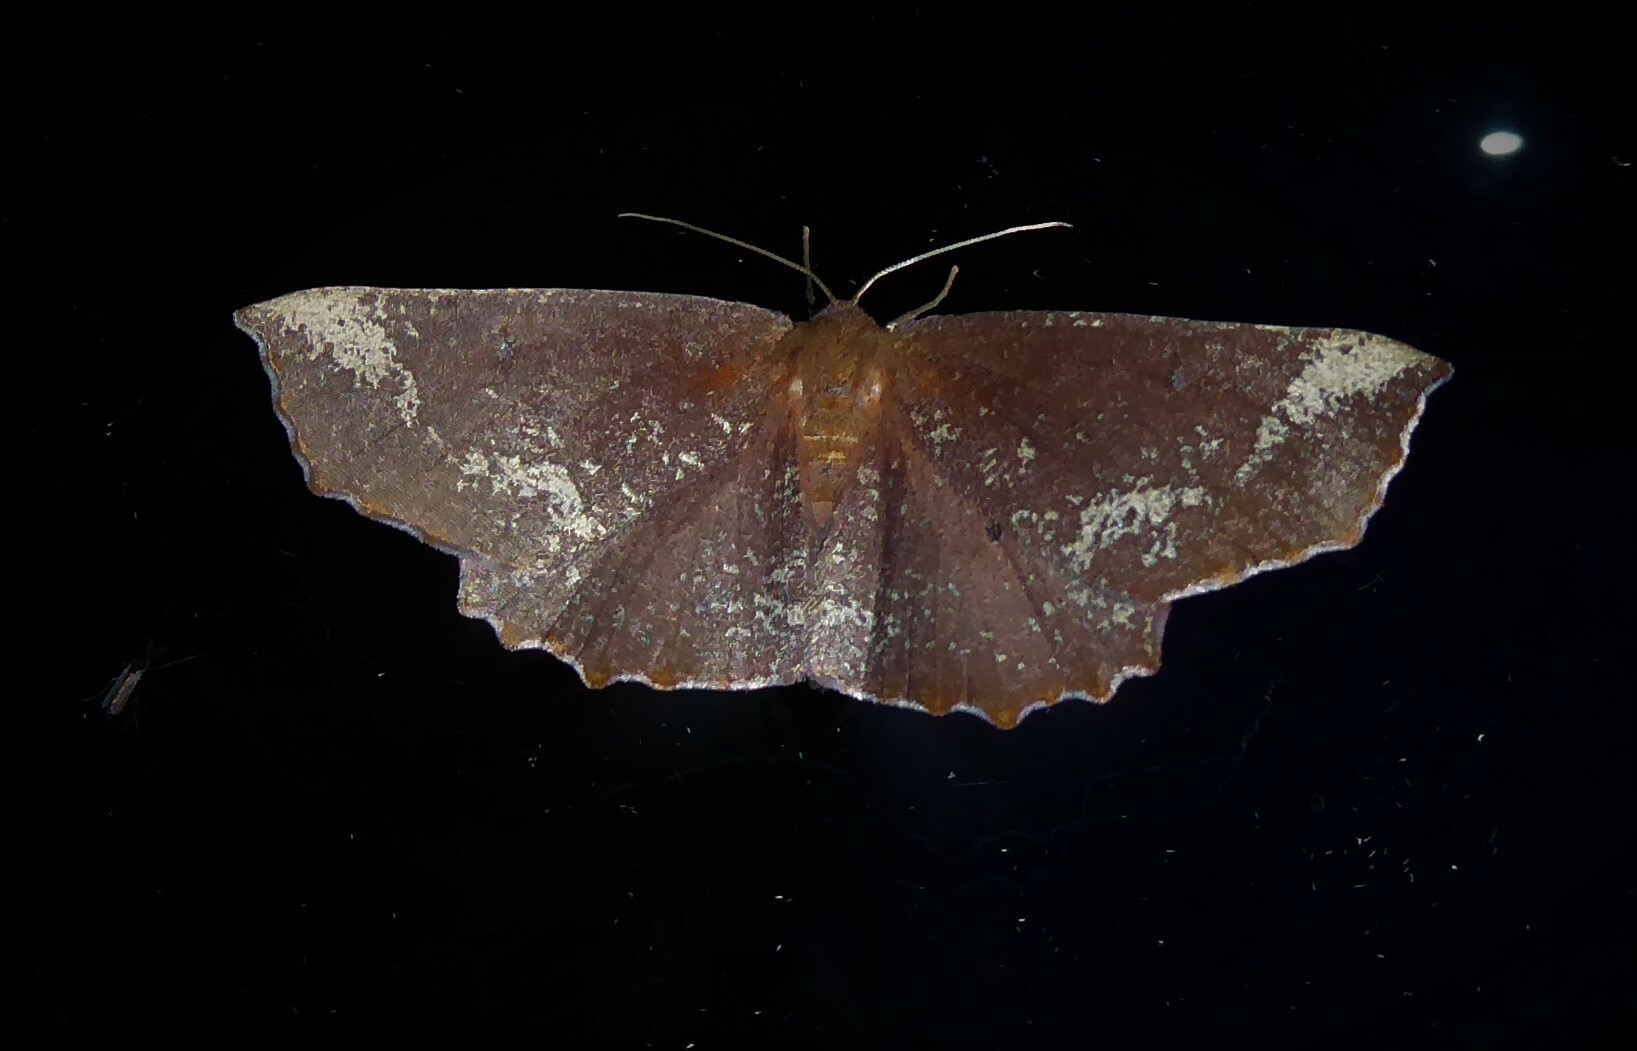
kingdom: Animalia
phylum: Arthropoda
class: Insecta
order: Lepidoptera
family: Geometridae
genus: Xyridacma
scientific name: Xyridacma ustaria
